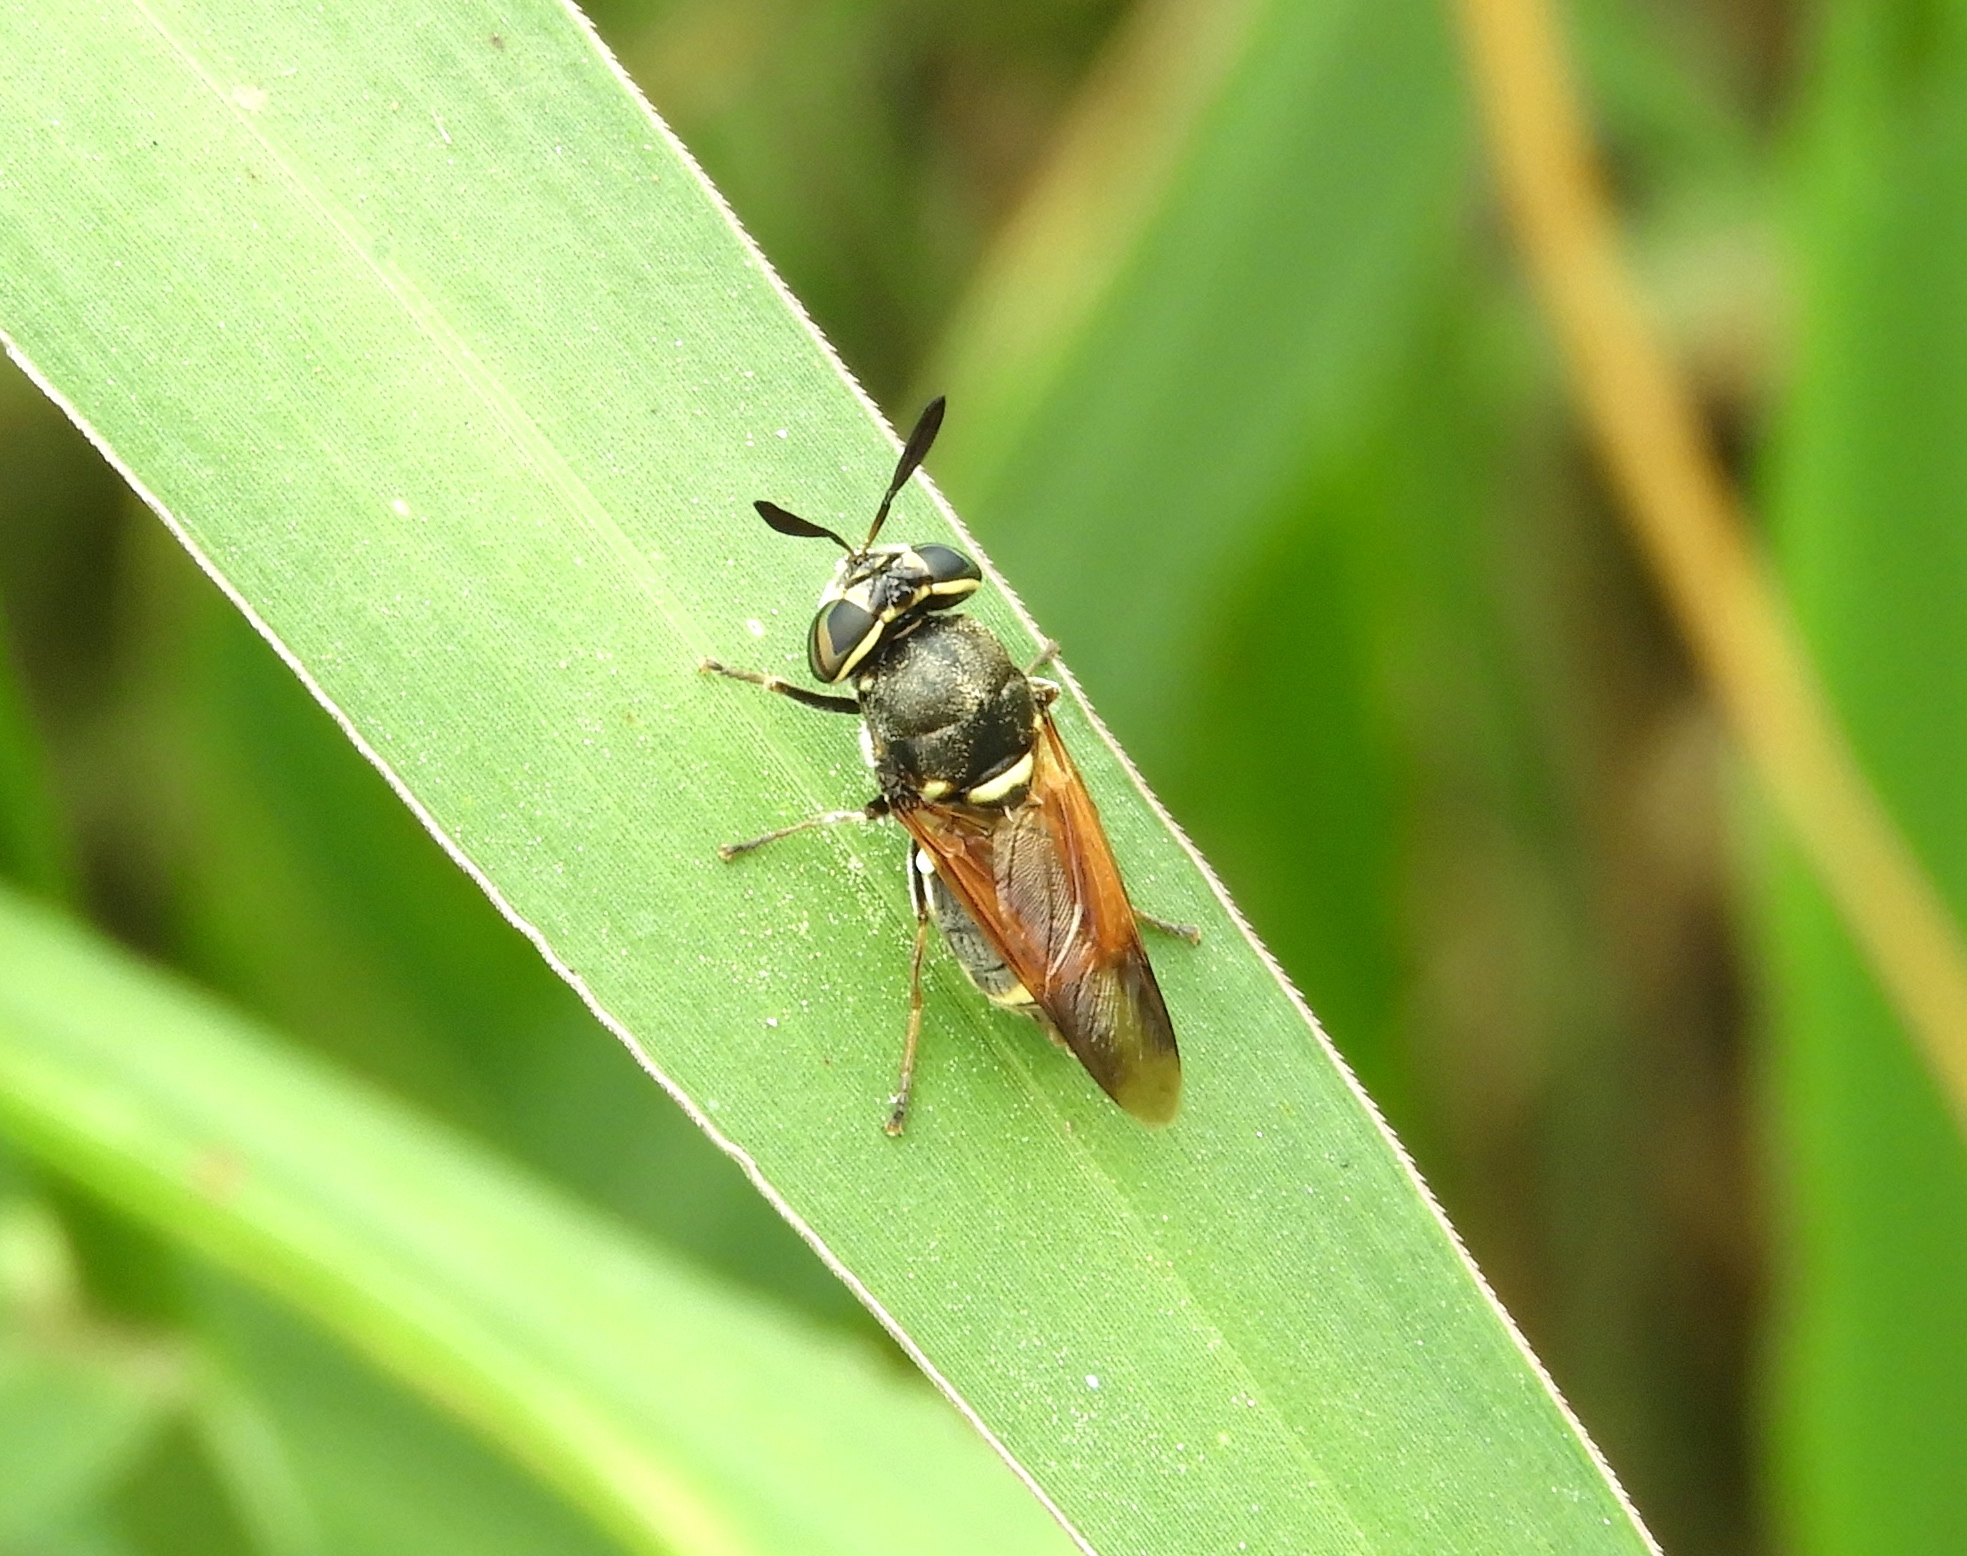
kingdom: Animalia
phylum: Arthropoda
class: Insecta
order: Diptera
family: Stratiomyidae
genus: Hoplitimyia
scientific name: Hoplitimyia
